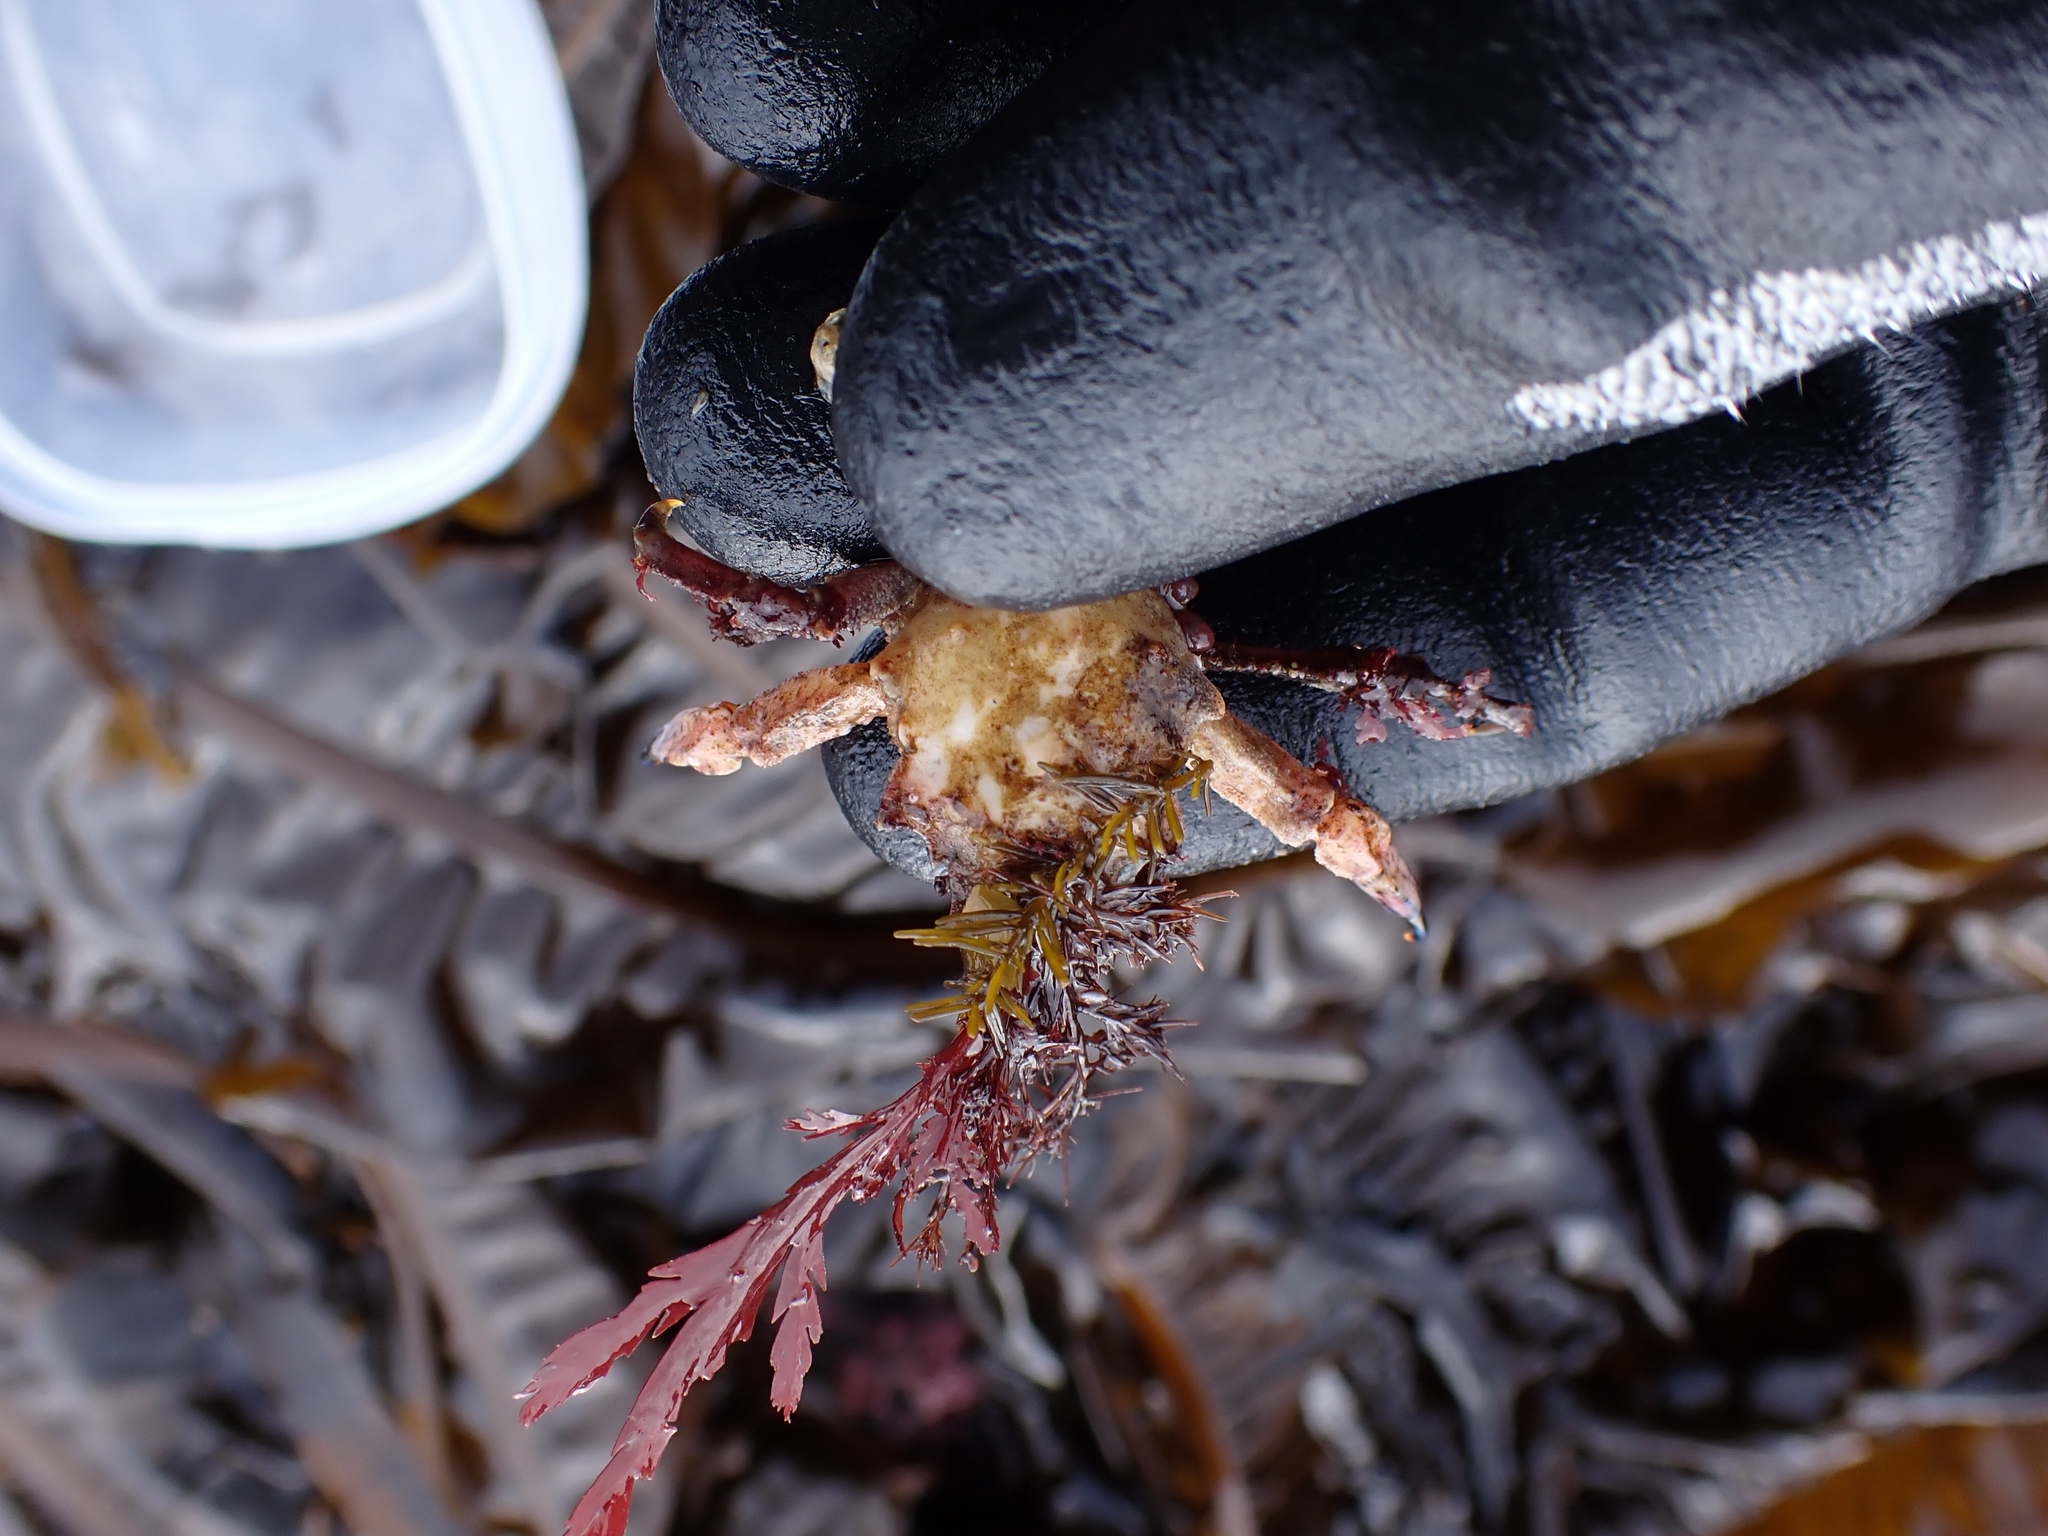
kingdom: Animalia
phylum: Arthropoda
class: Malacostraca
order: Decapoda
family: Epialtidae
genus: Pugettia
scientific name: Pugettia gracilis
